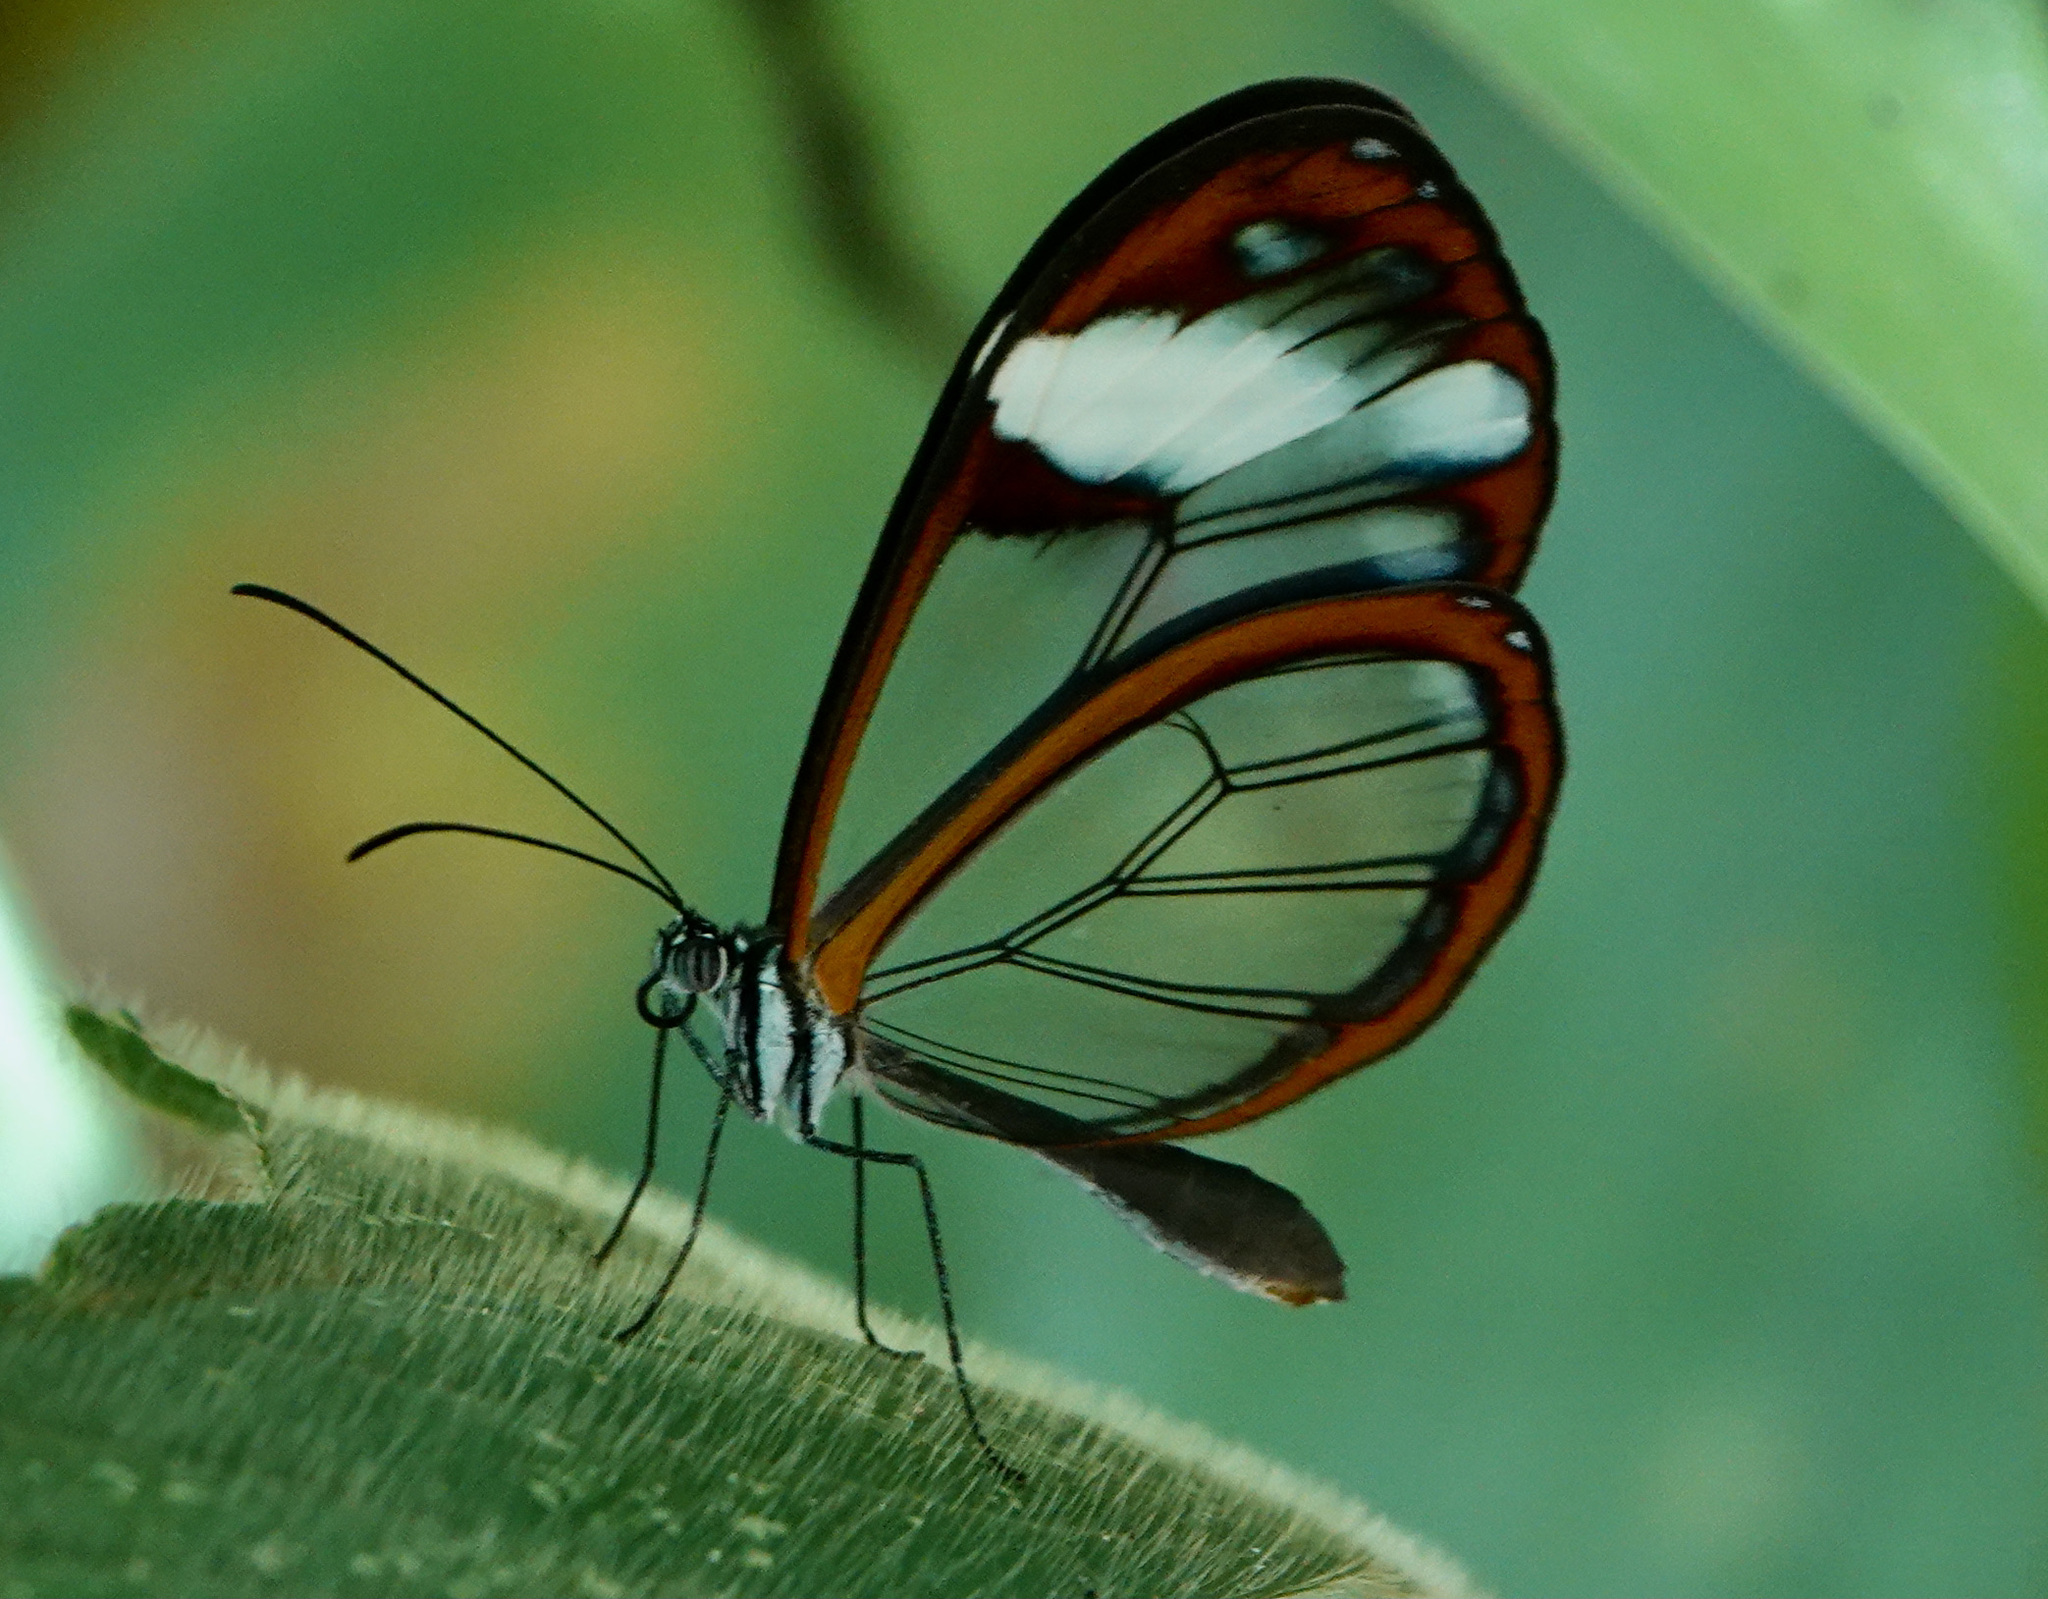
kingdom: Animalia
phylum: Arthropoda
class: Insecta
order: Lepidoptera
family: Nymphalidae
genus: Greta
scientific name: Greta andromica
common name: Andromica clearwing
